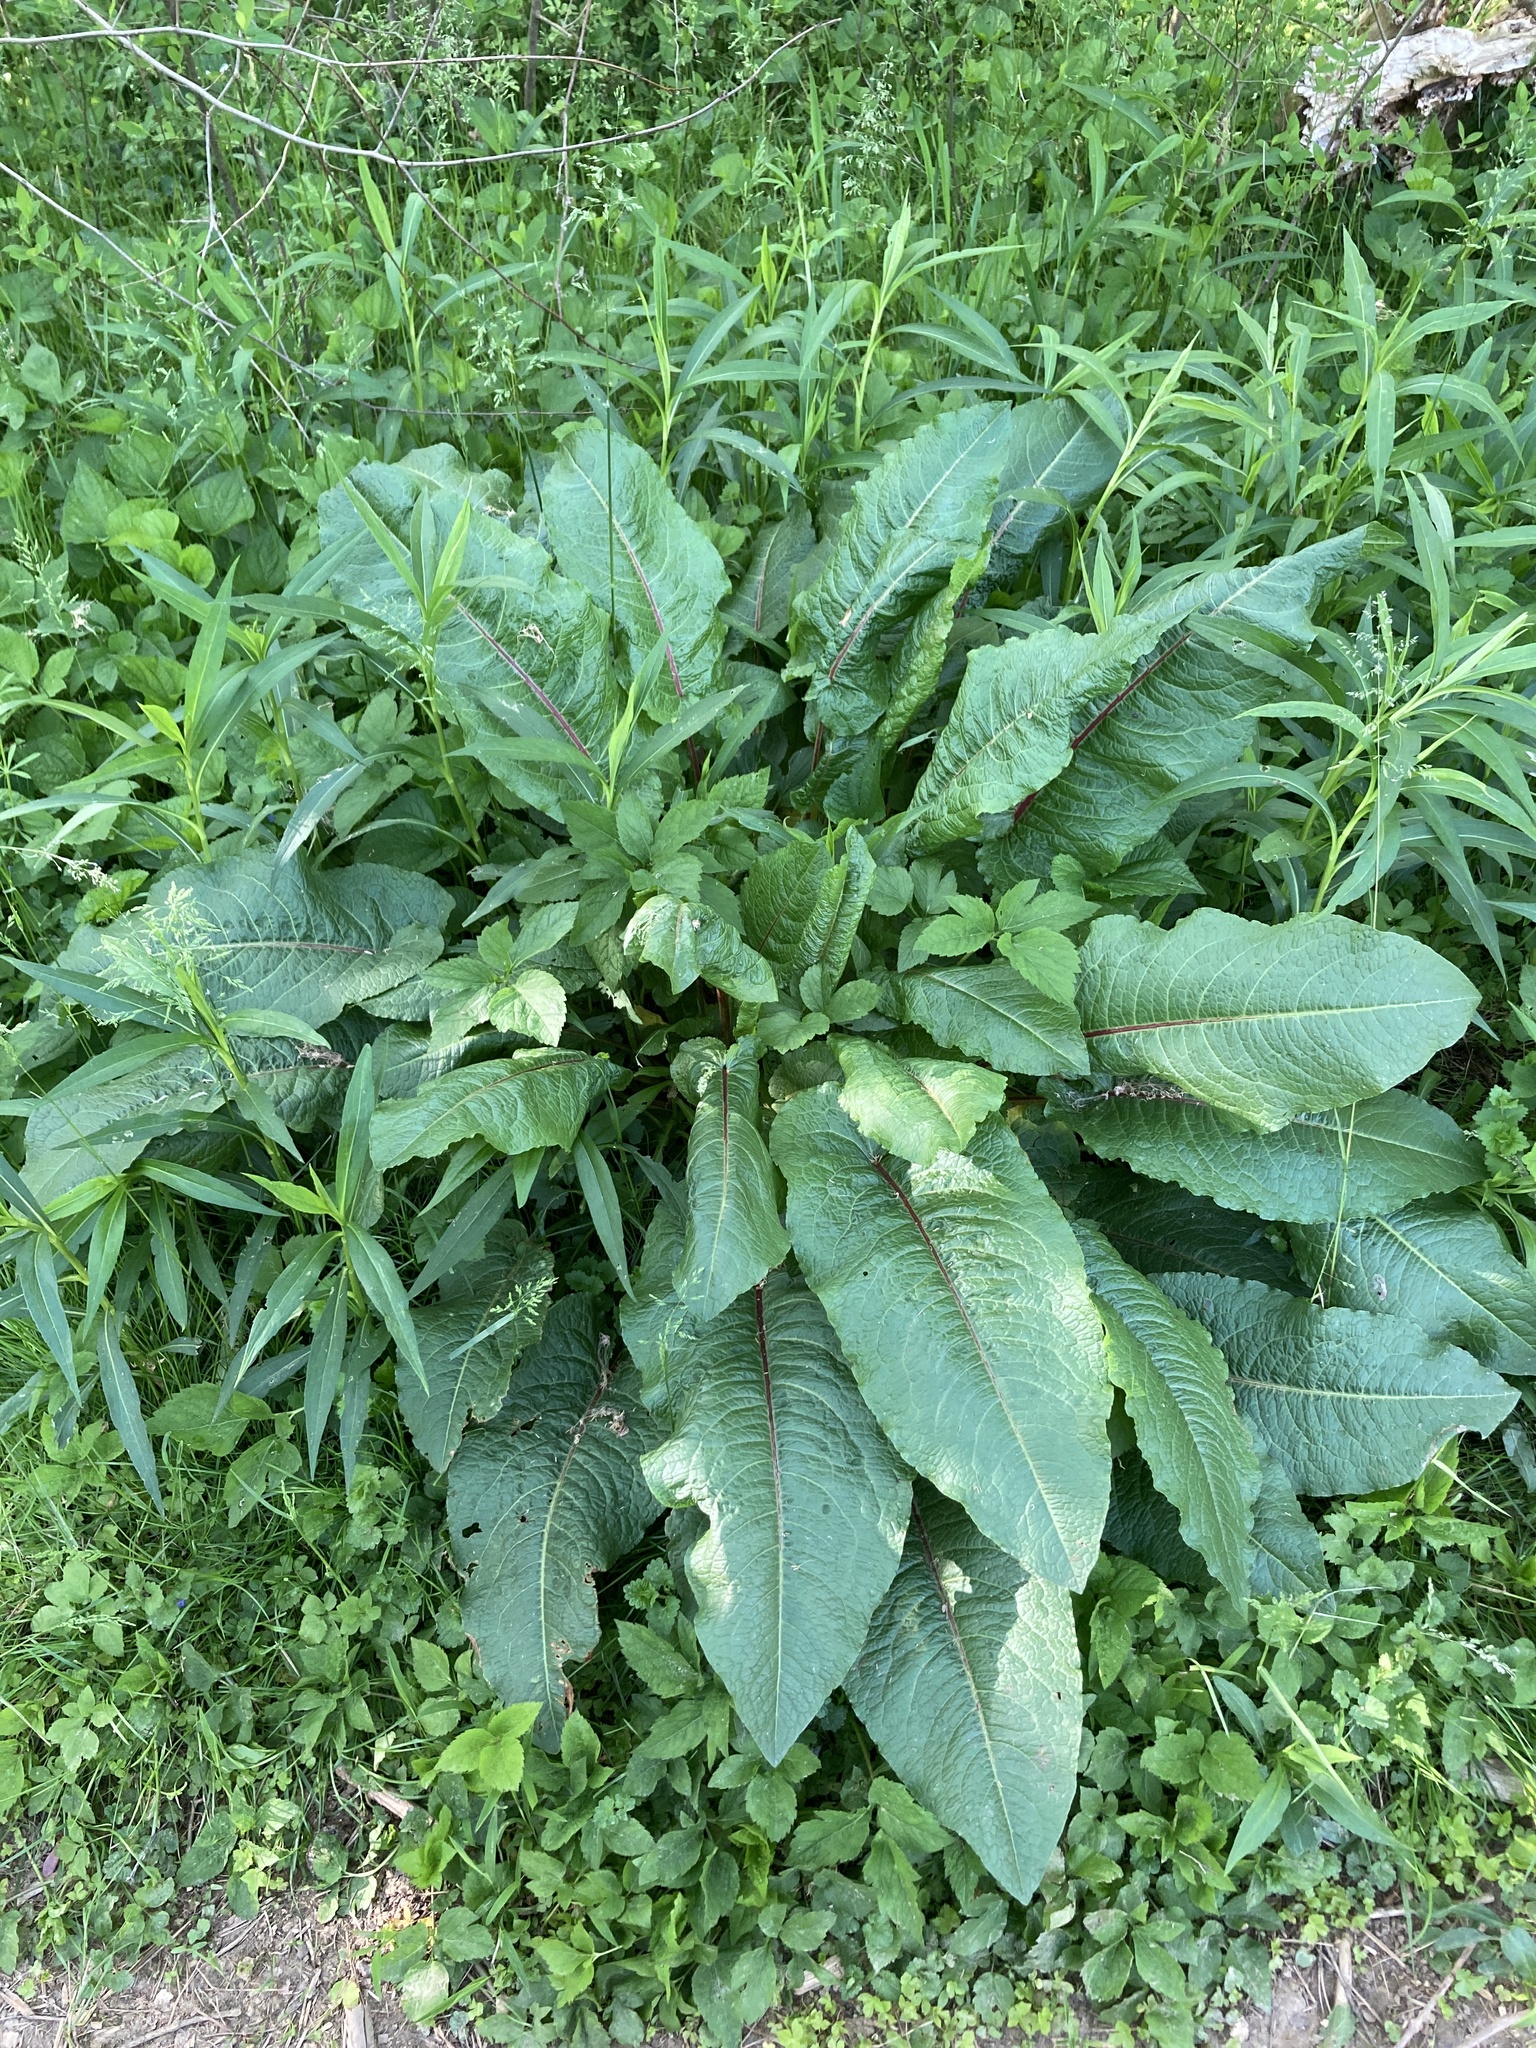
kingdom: Plantae
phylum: Tracheophyta
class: Magnoliopsida
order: Caryophyllales
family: Polygonaceae
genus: Rumex
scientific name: Rumex obtusifolius
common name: Bitter dock
